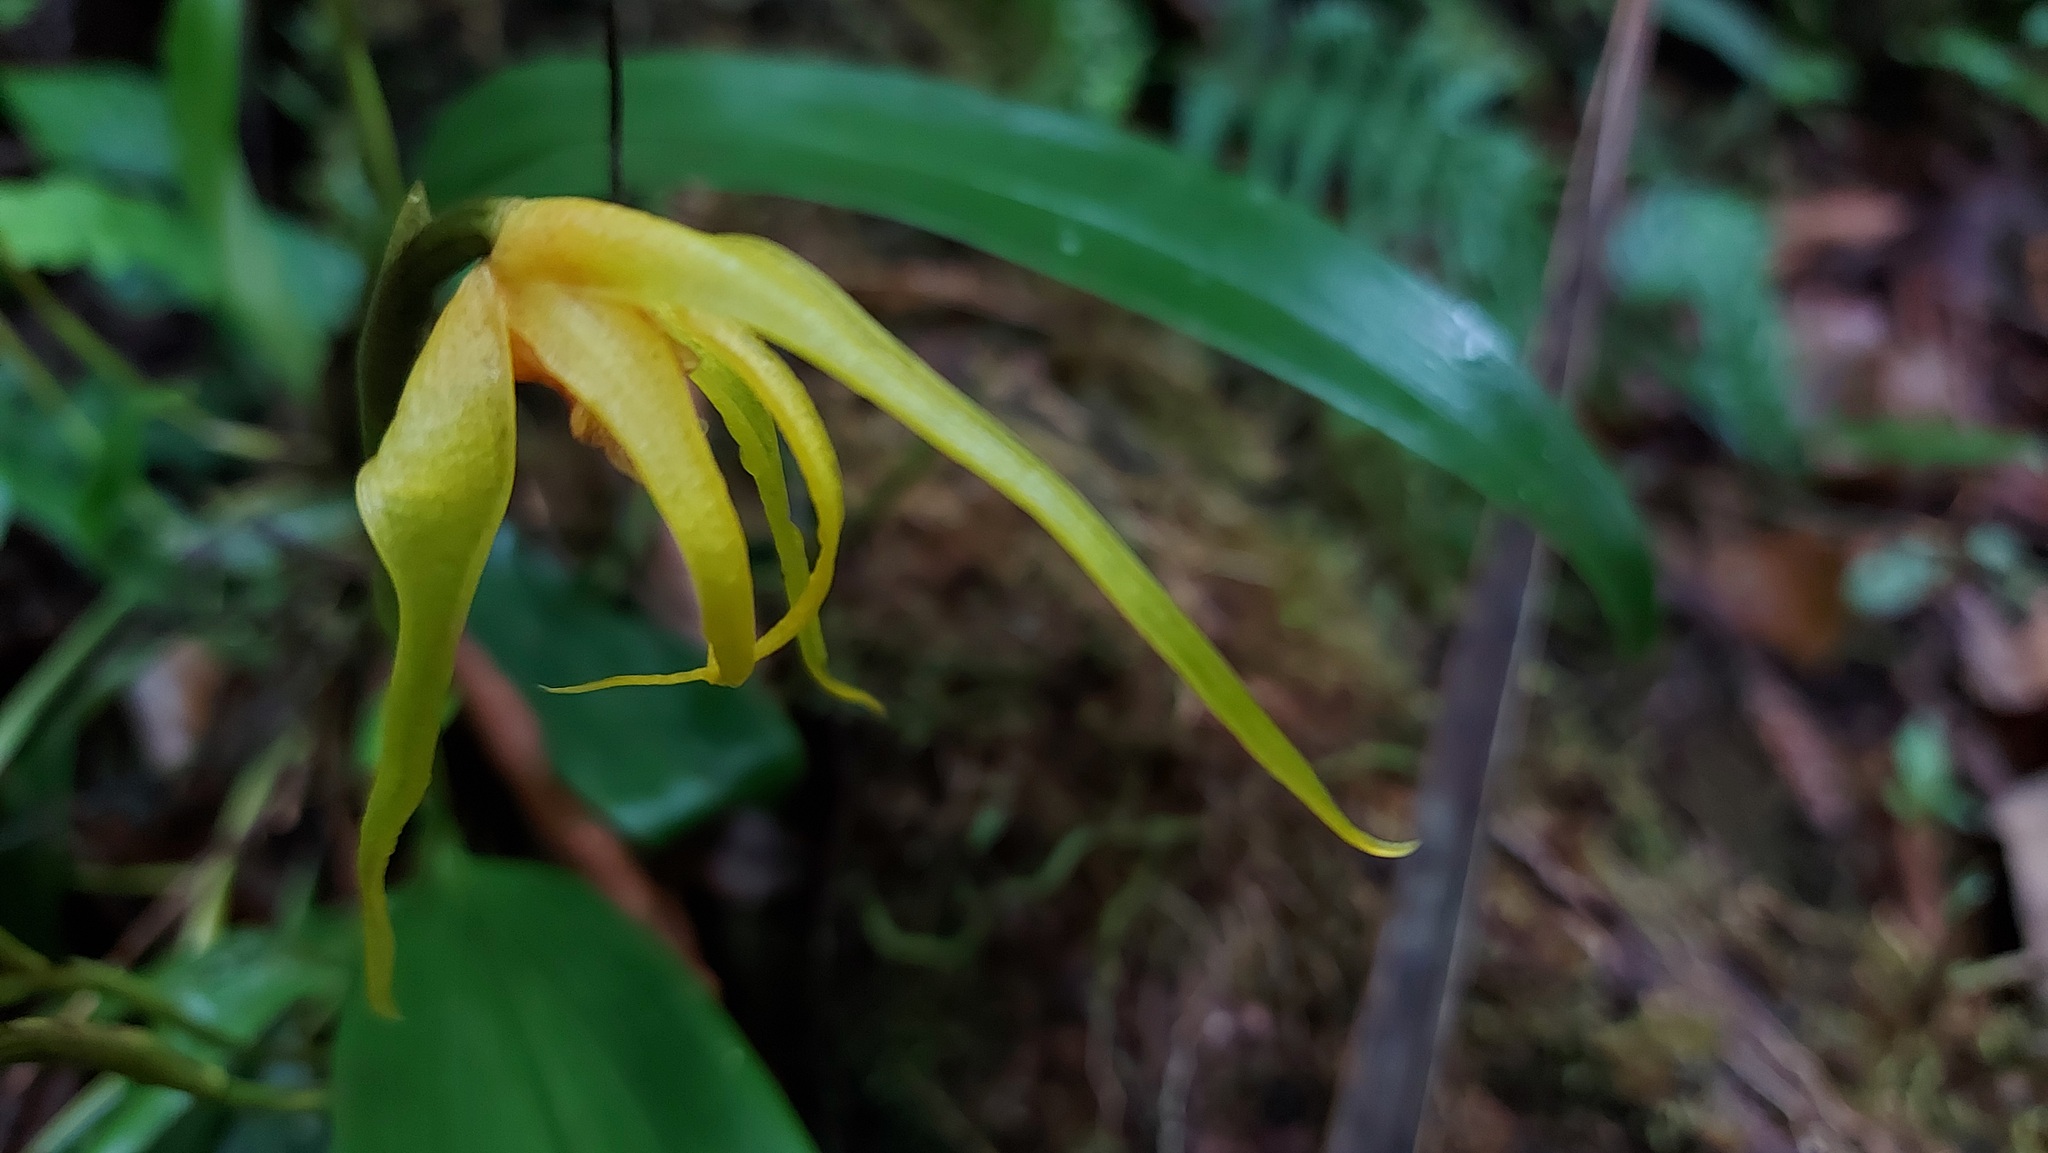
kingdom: Plantae
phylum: Tracheophyta
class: Liliopsida
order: Asparagales
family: Orchidaceae
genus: Maxillaria
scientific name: Maxillaria saxicola
